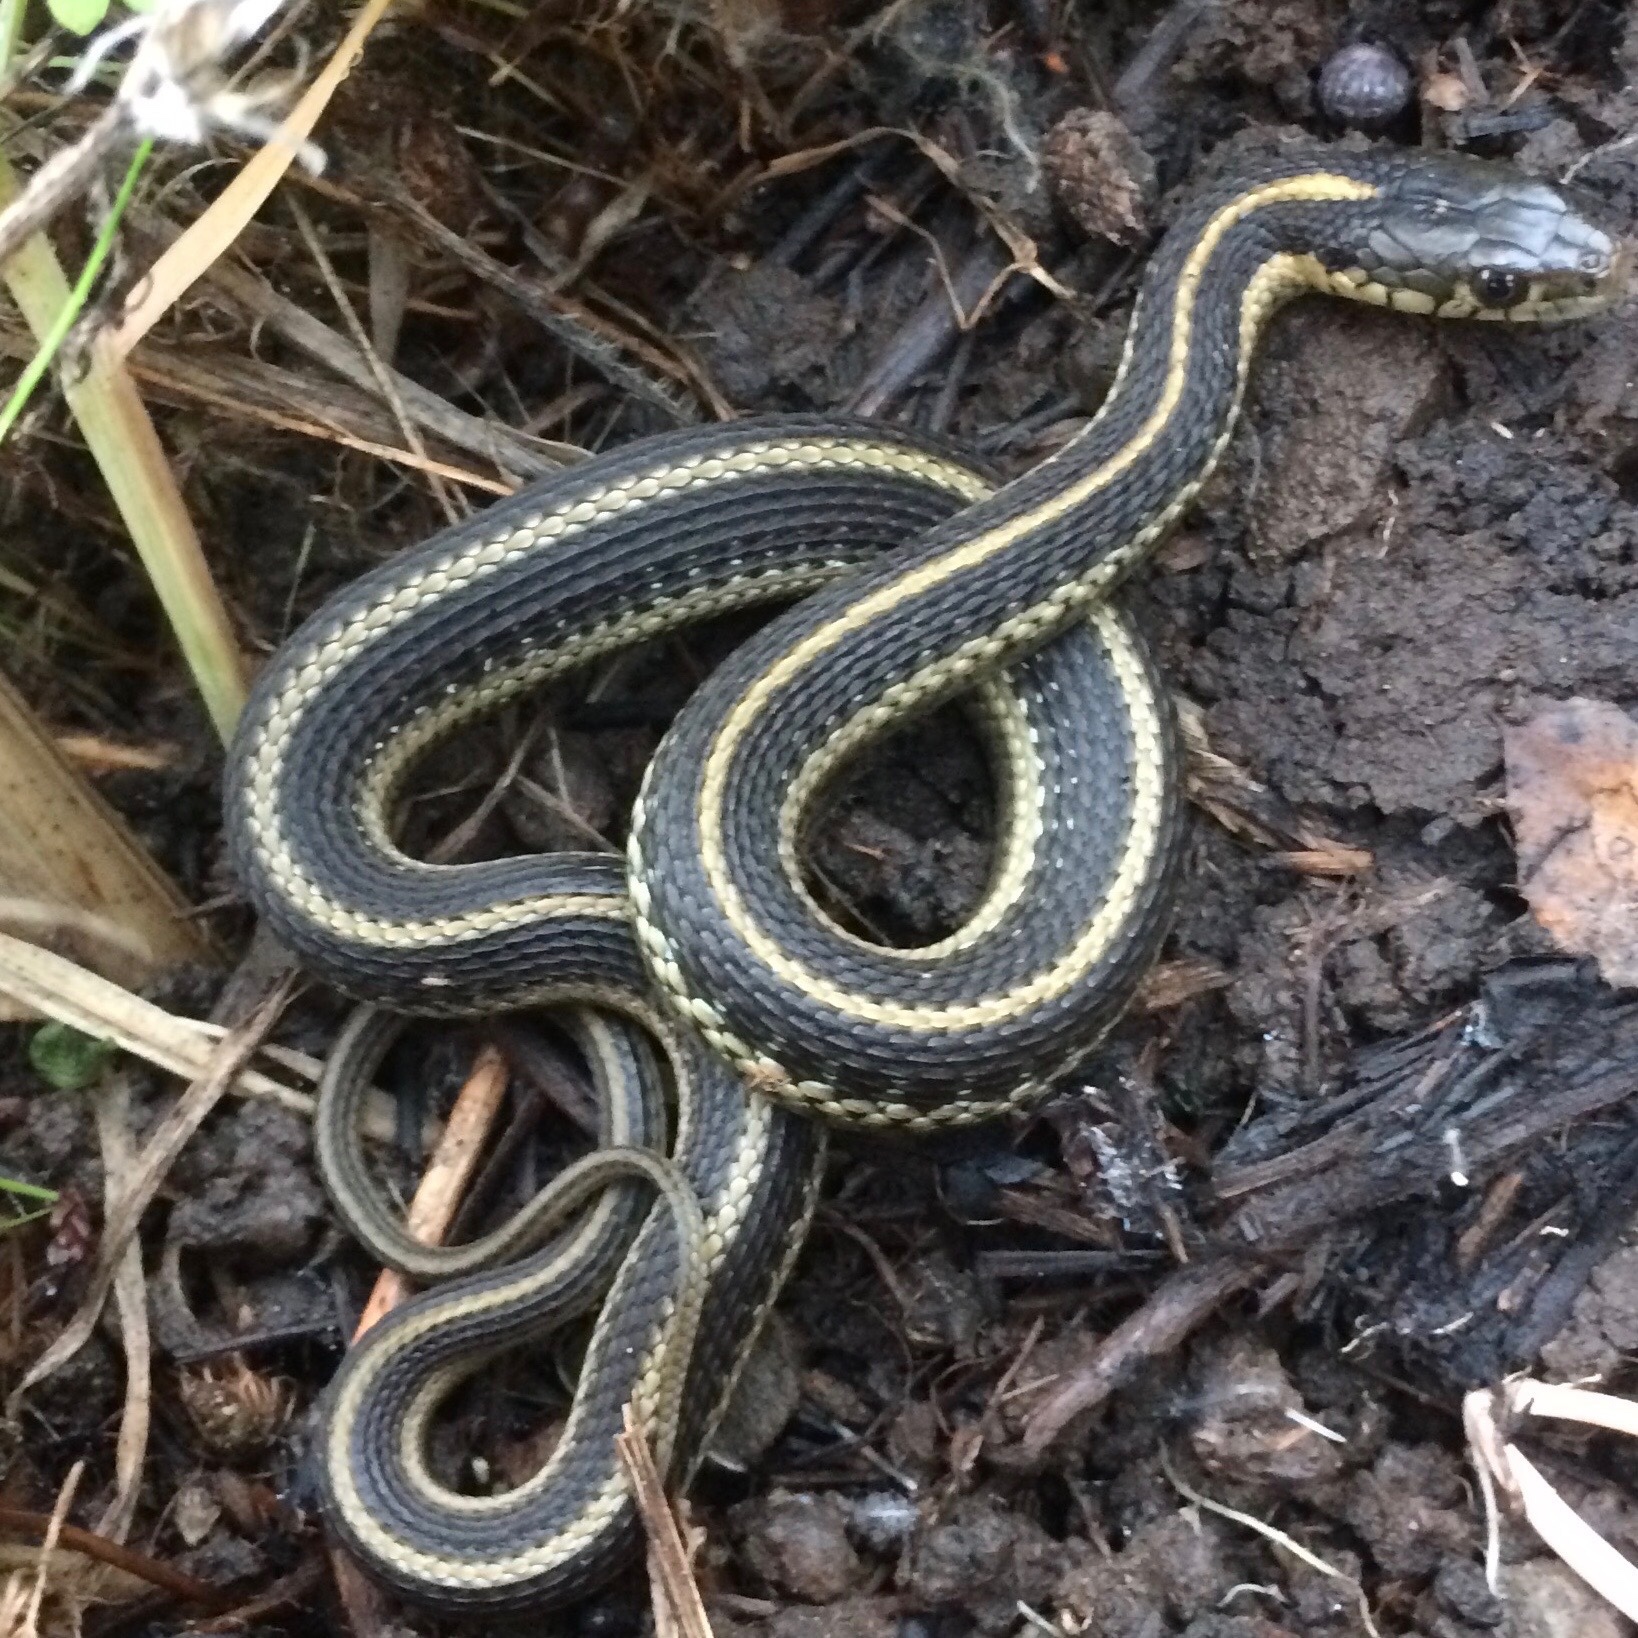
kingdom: Animalia
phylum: Chordata
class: Squamata
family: Colubridae
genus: Thamnophis
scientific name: Thamnophis atratus
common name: Pacific coast aquatic garter snake
